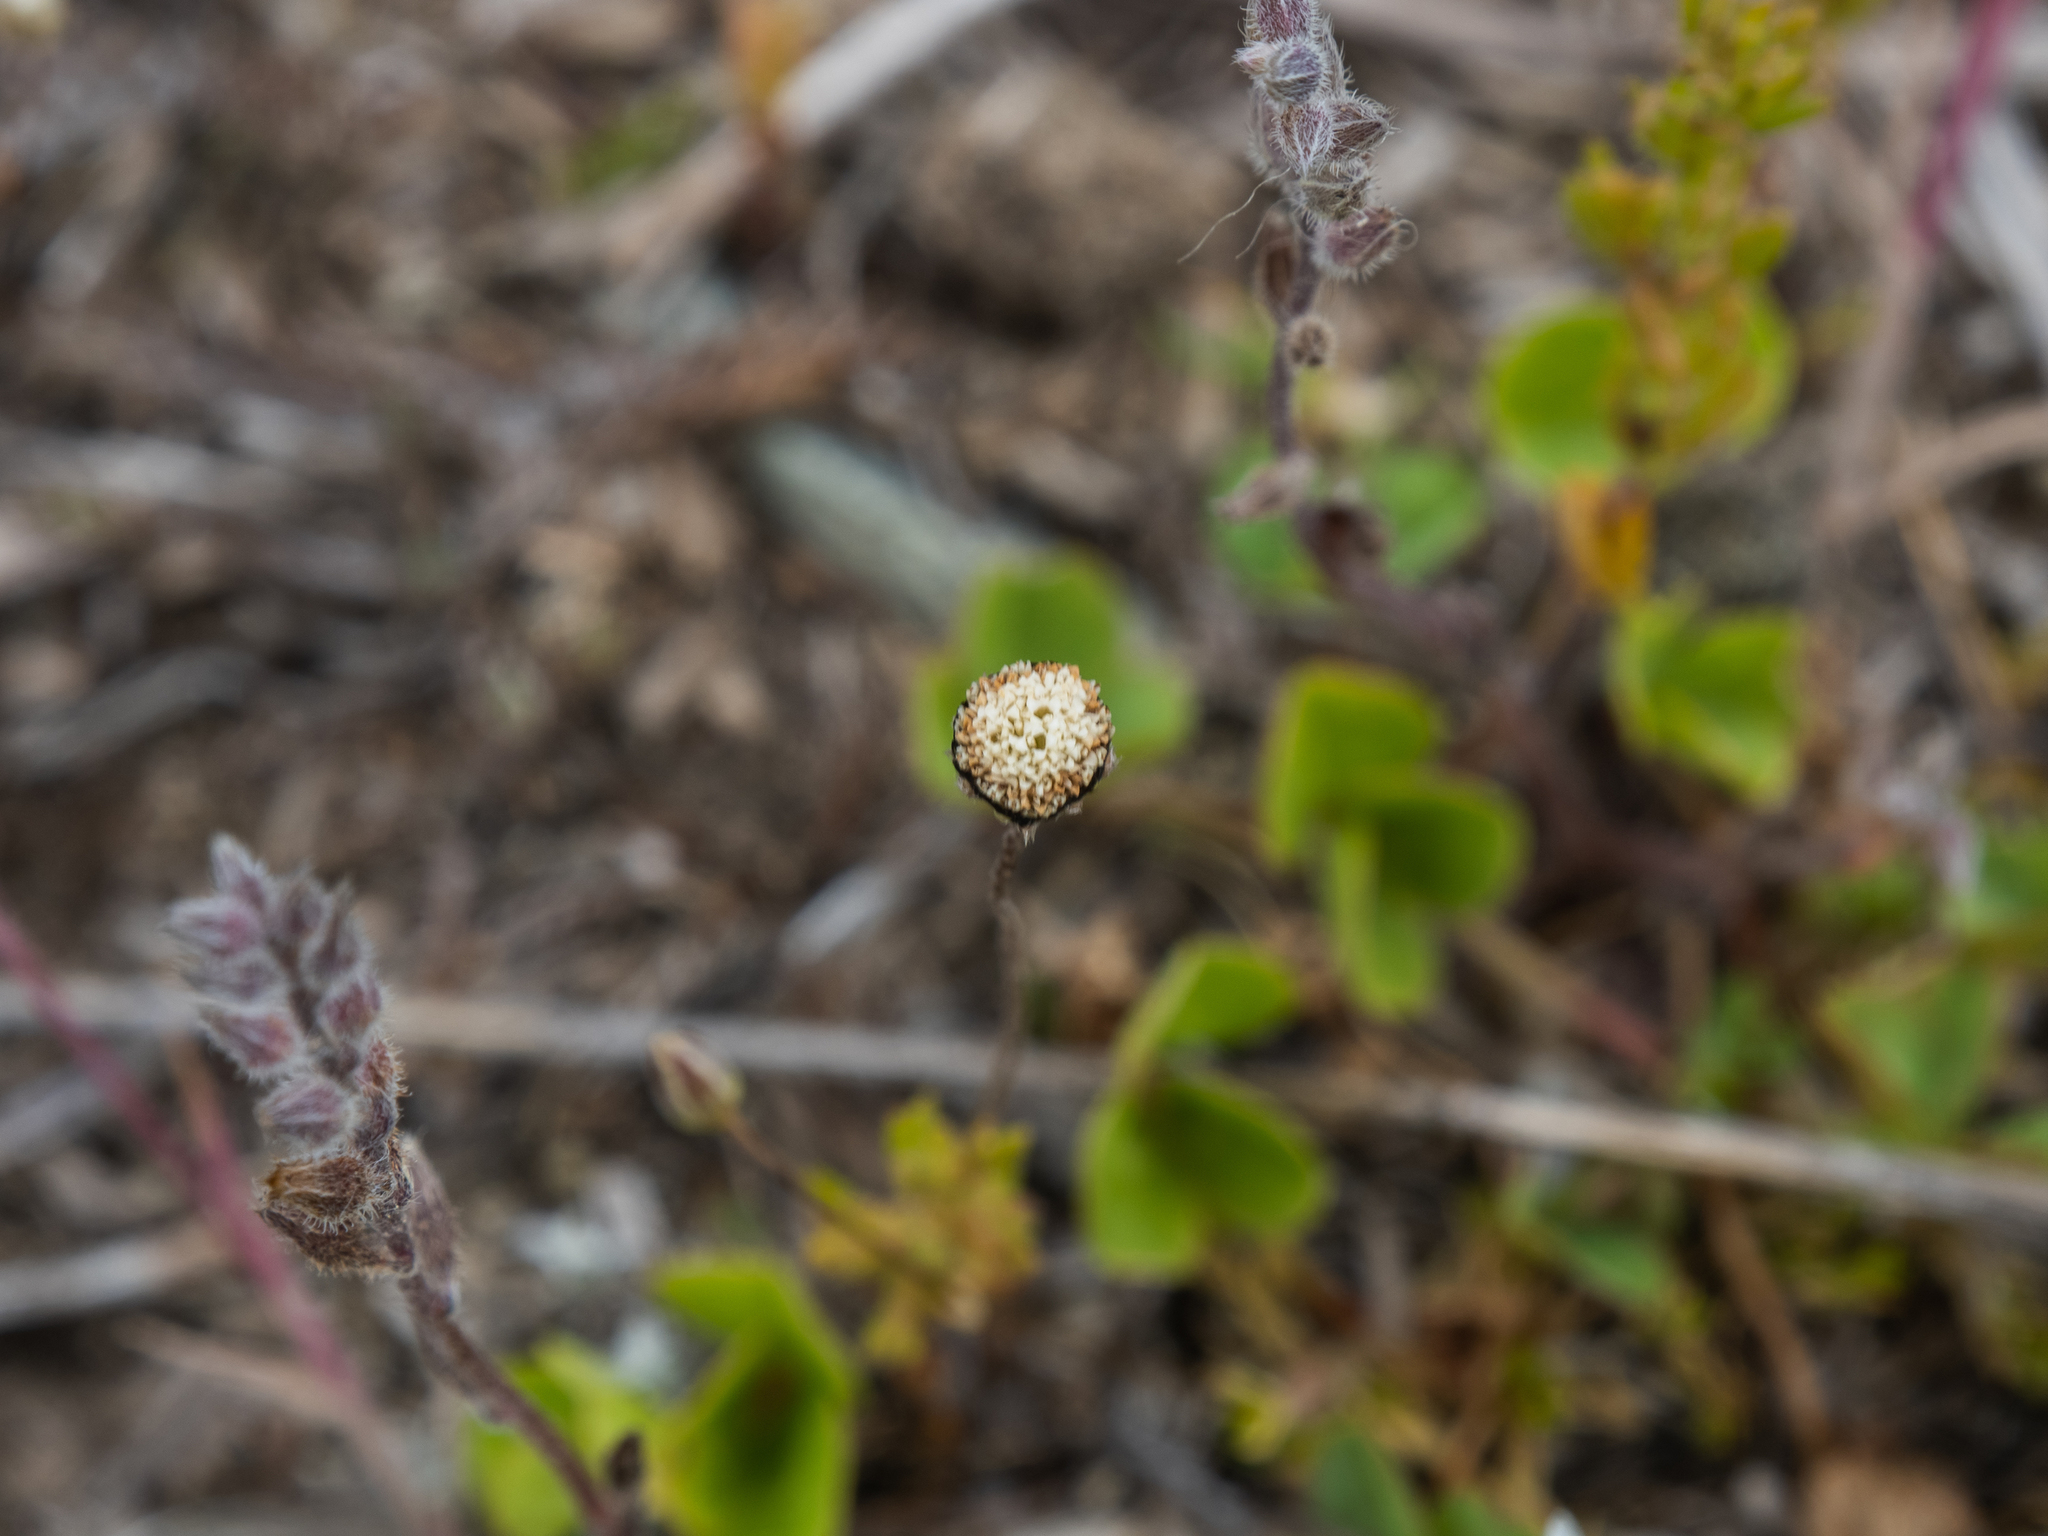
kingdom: Plantae
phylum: Tracheophyta
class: Magnoliopsida
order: Asterales
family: Asteraceae
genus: Leptinella
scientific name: Leptinella pectinata
